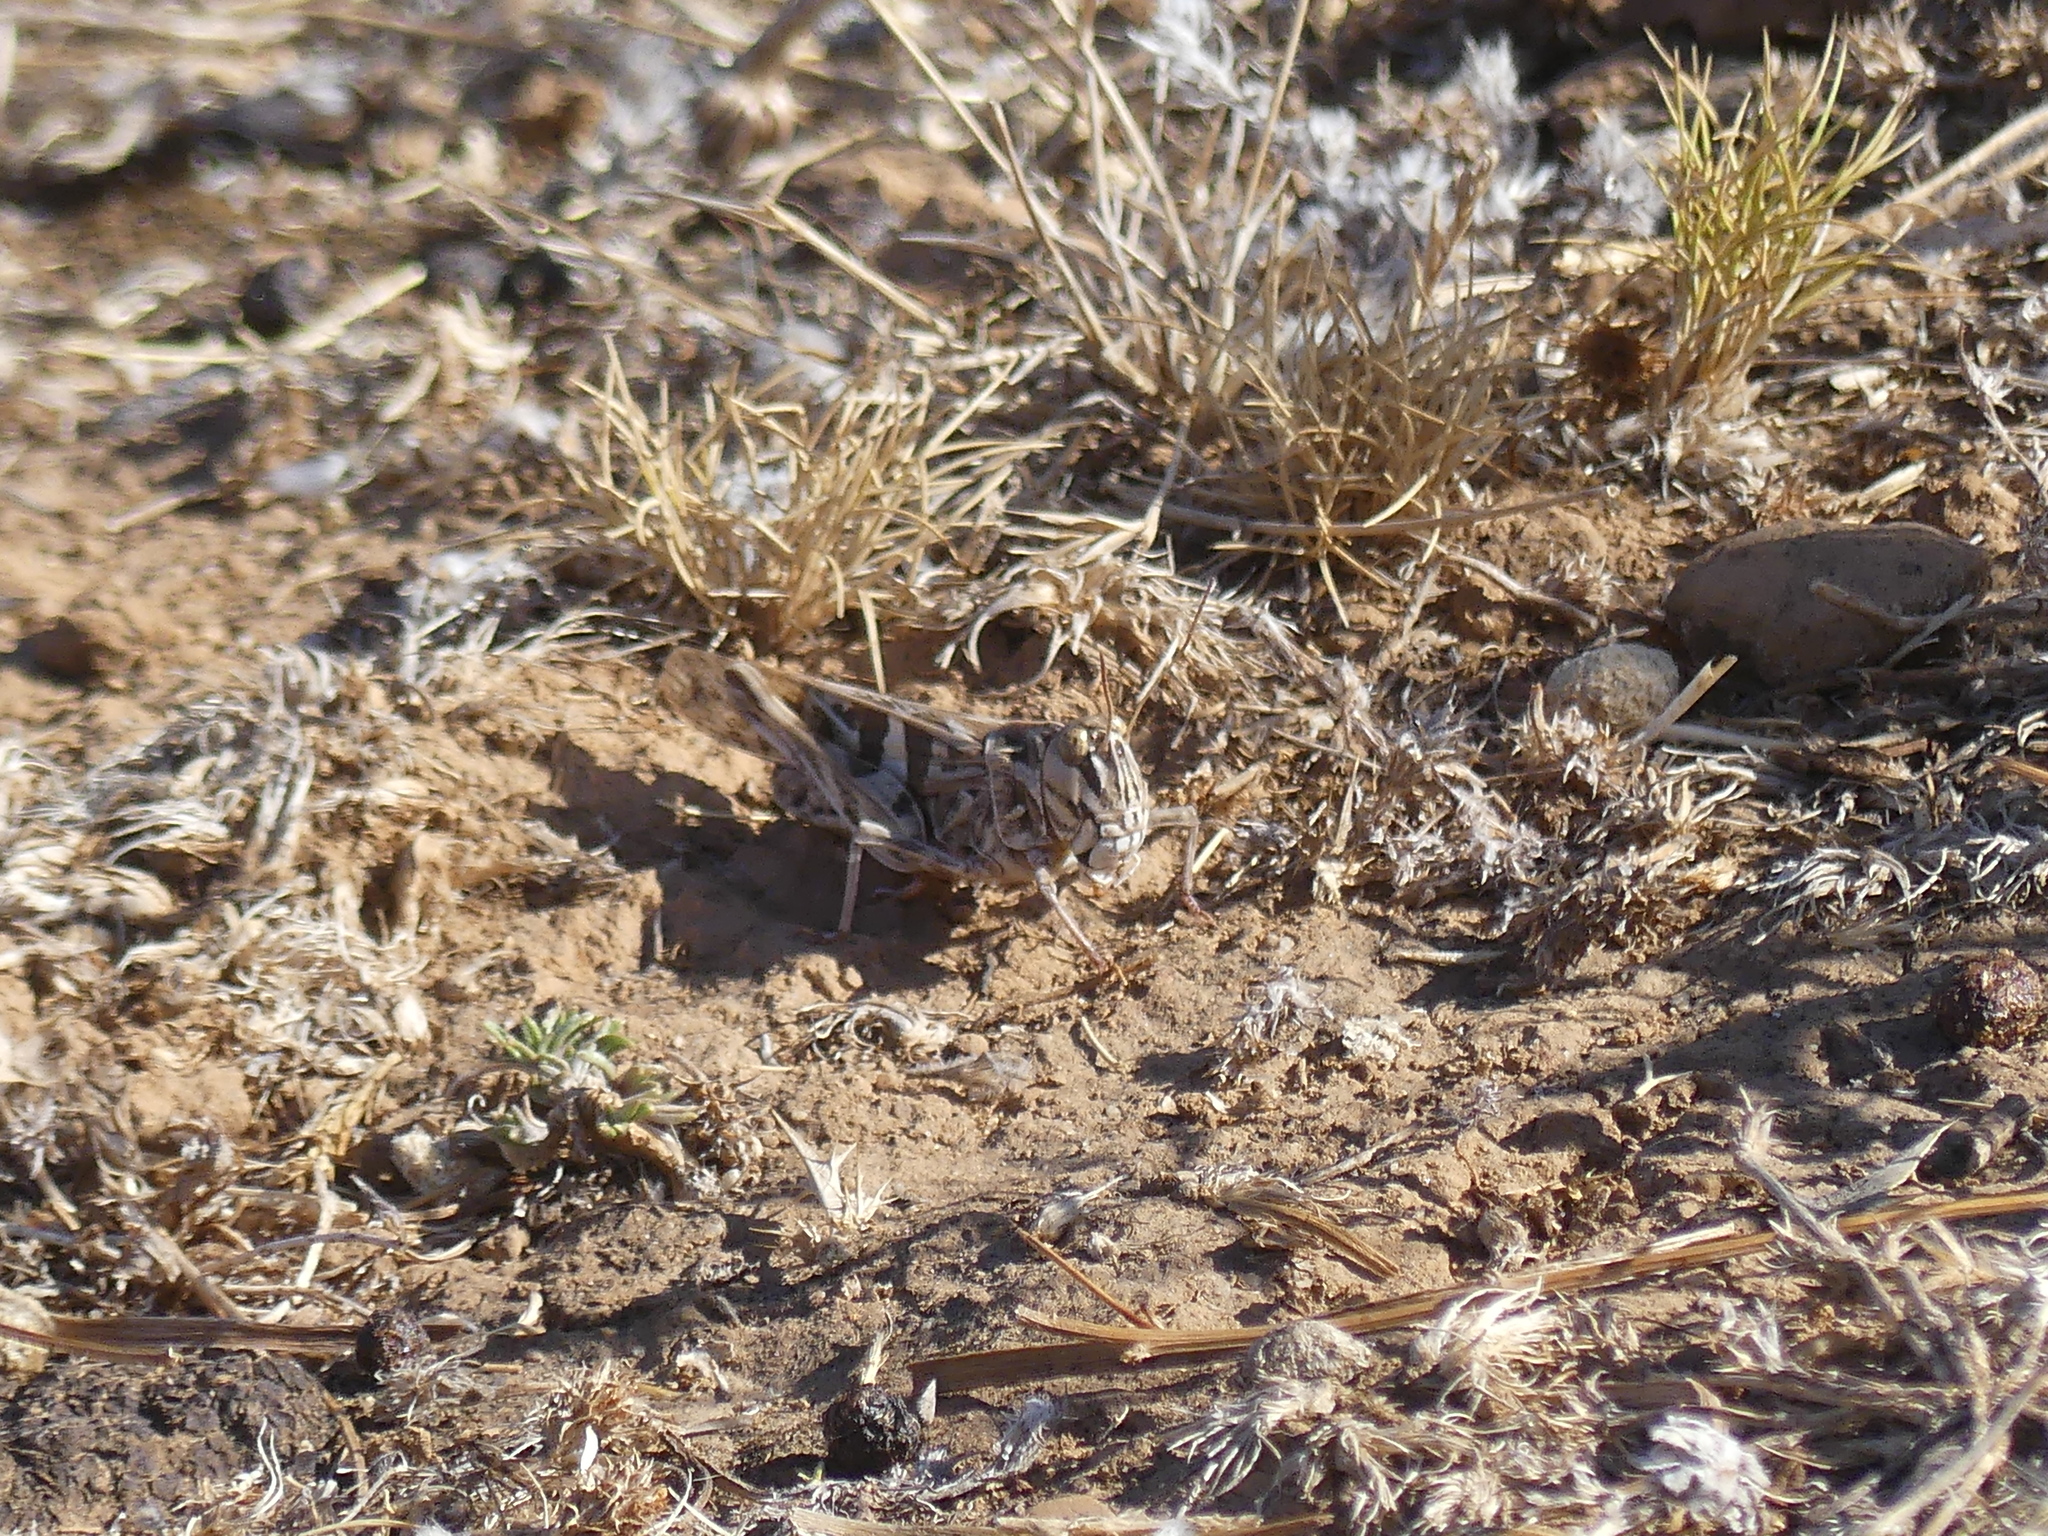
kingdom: Animalia
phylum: Arthropoda
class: Insecta
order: Orthoptera
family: Acrididae
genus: Oedaleus
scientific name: Oedaleus decorus
